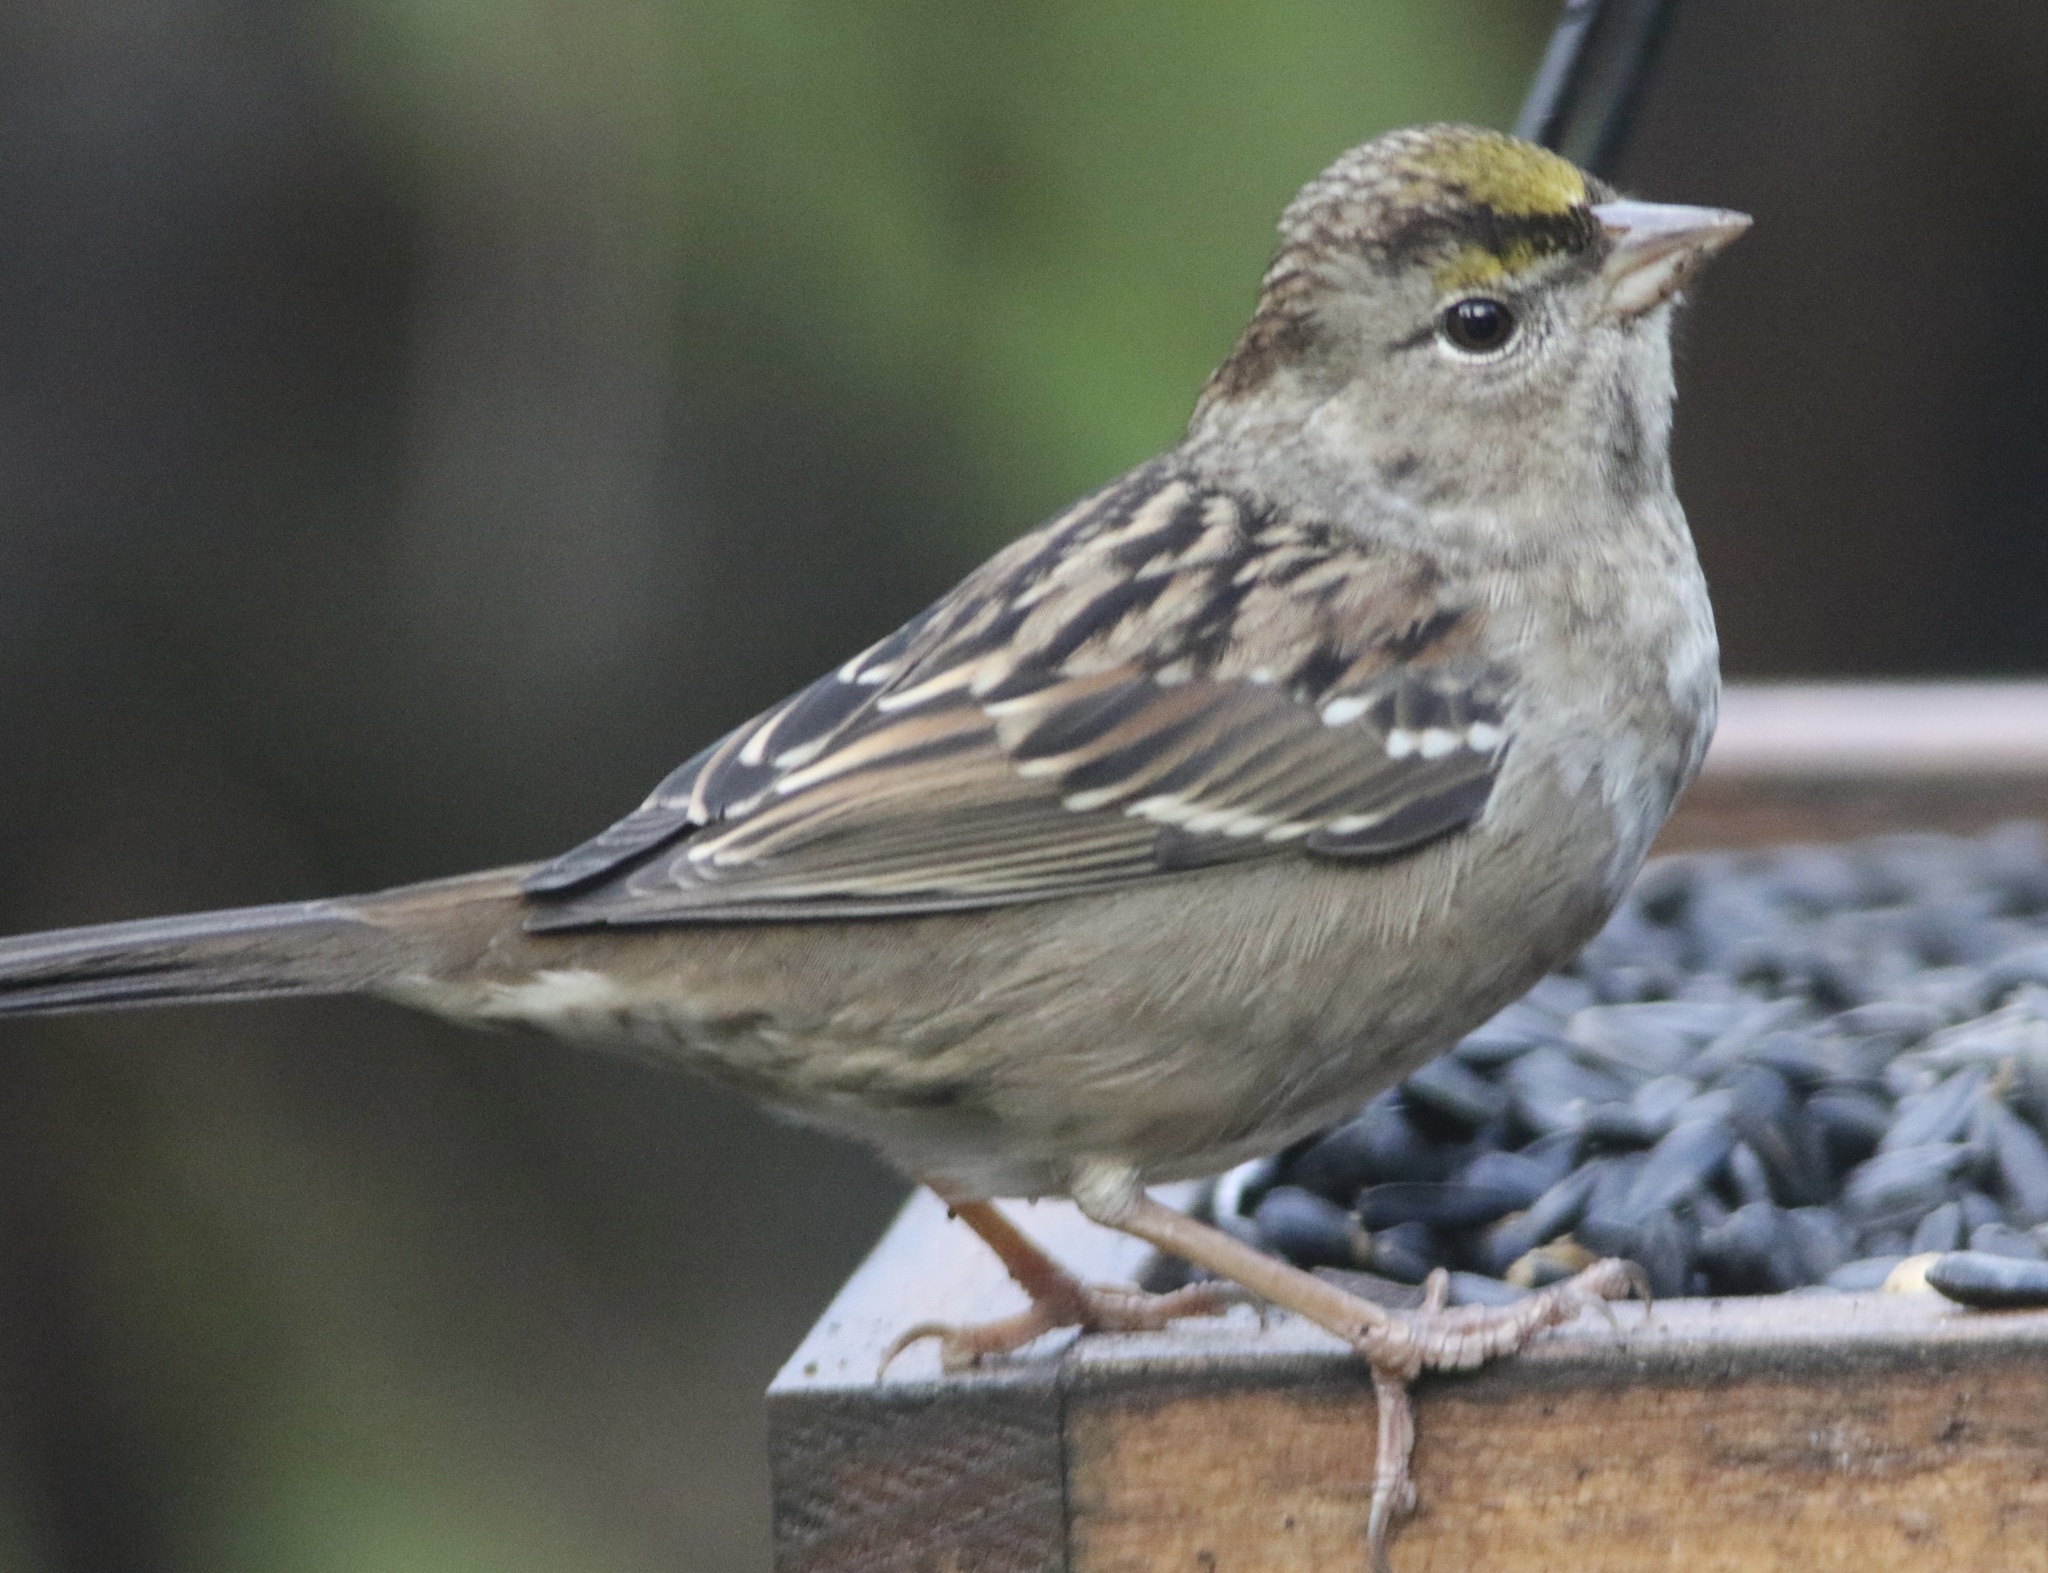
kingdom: Animalia
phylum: Chordata
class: Aves
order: Passeriformes
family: Passerellidae
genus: Zonotrichia
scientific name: Zonotrichia atricapilla
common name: Golden-crowned sparrow
